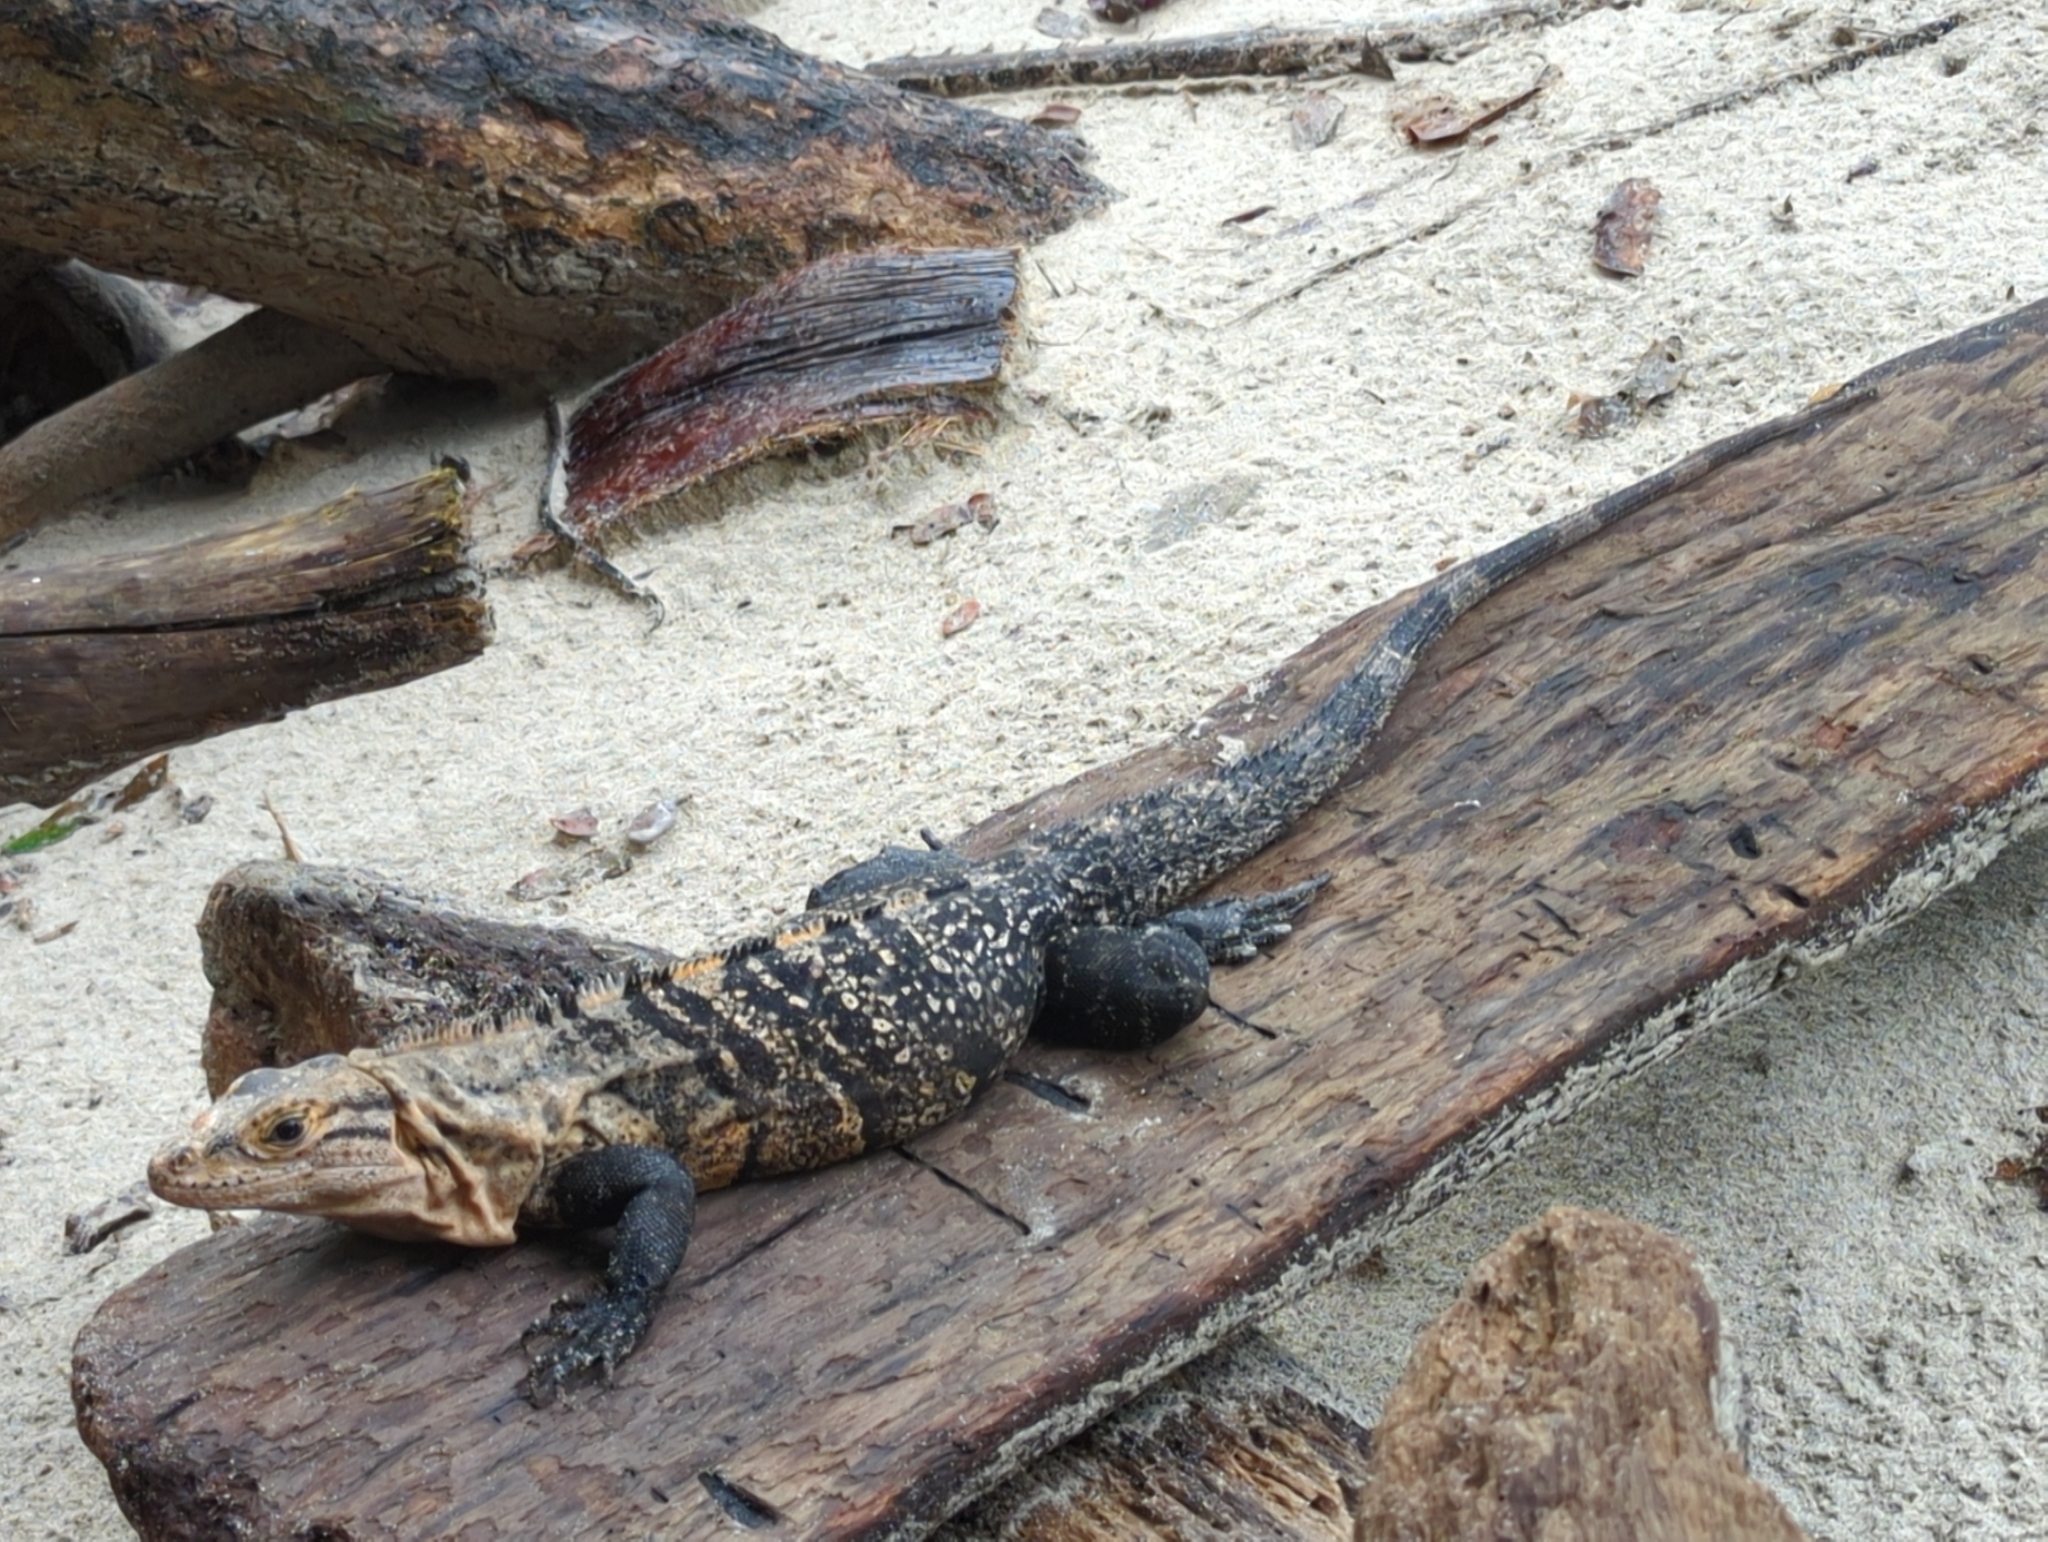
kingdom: Animalia
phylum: Chordata
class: Squamata
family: Iguanidae
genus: Ctenosaura
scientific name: Ctenosaura similis
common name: Black spiny-tailed iguana
